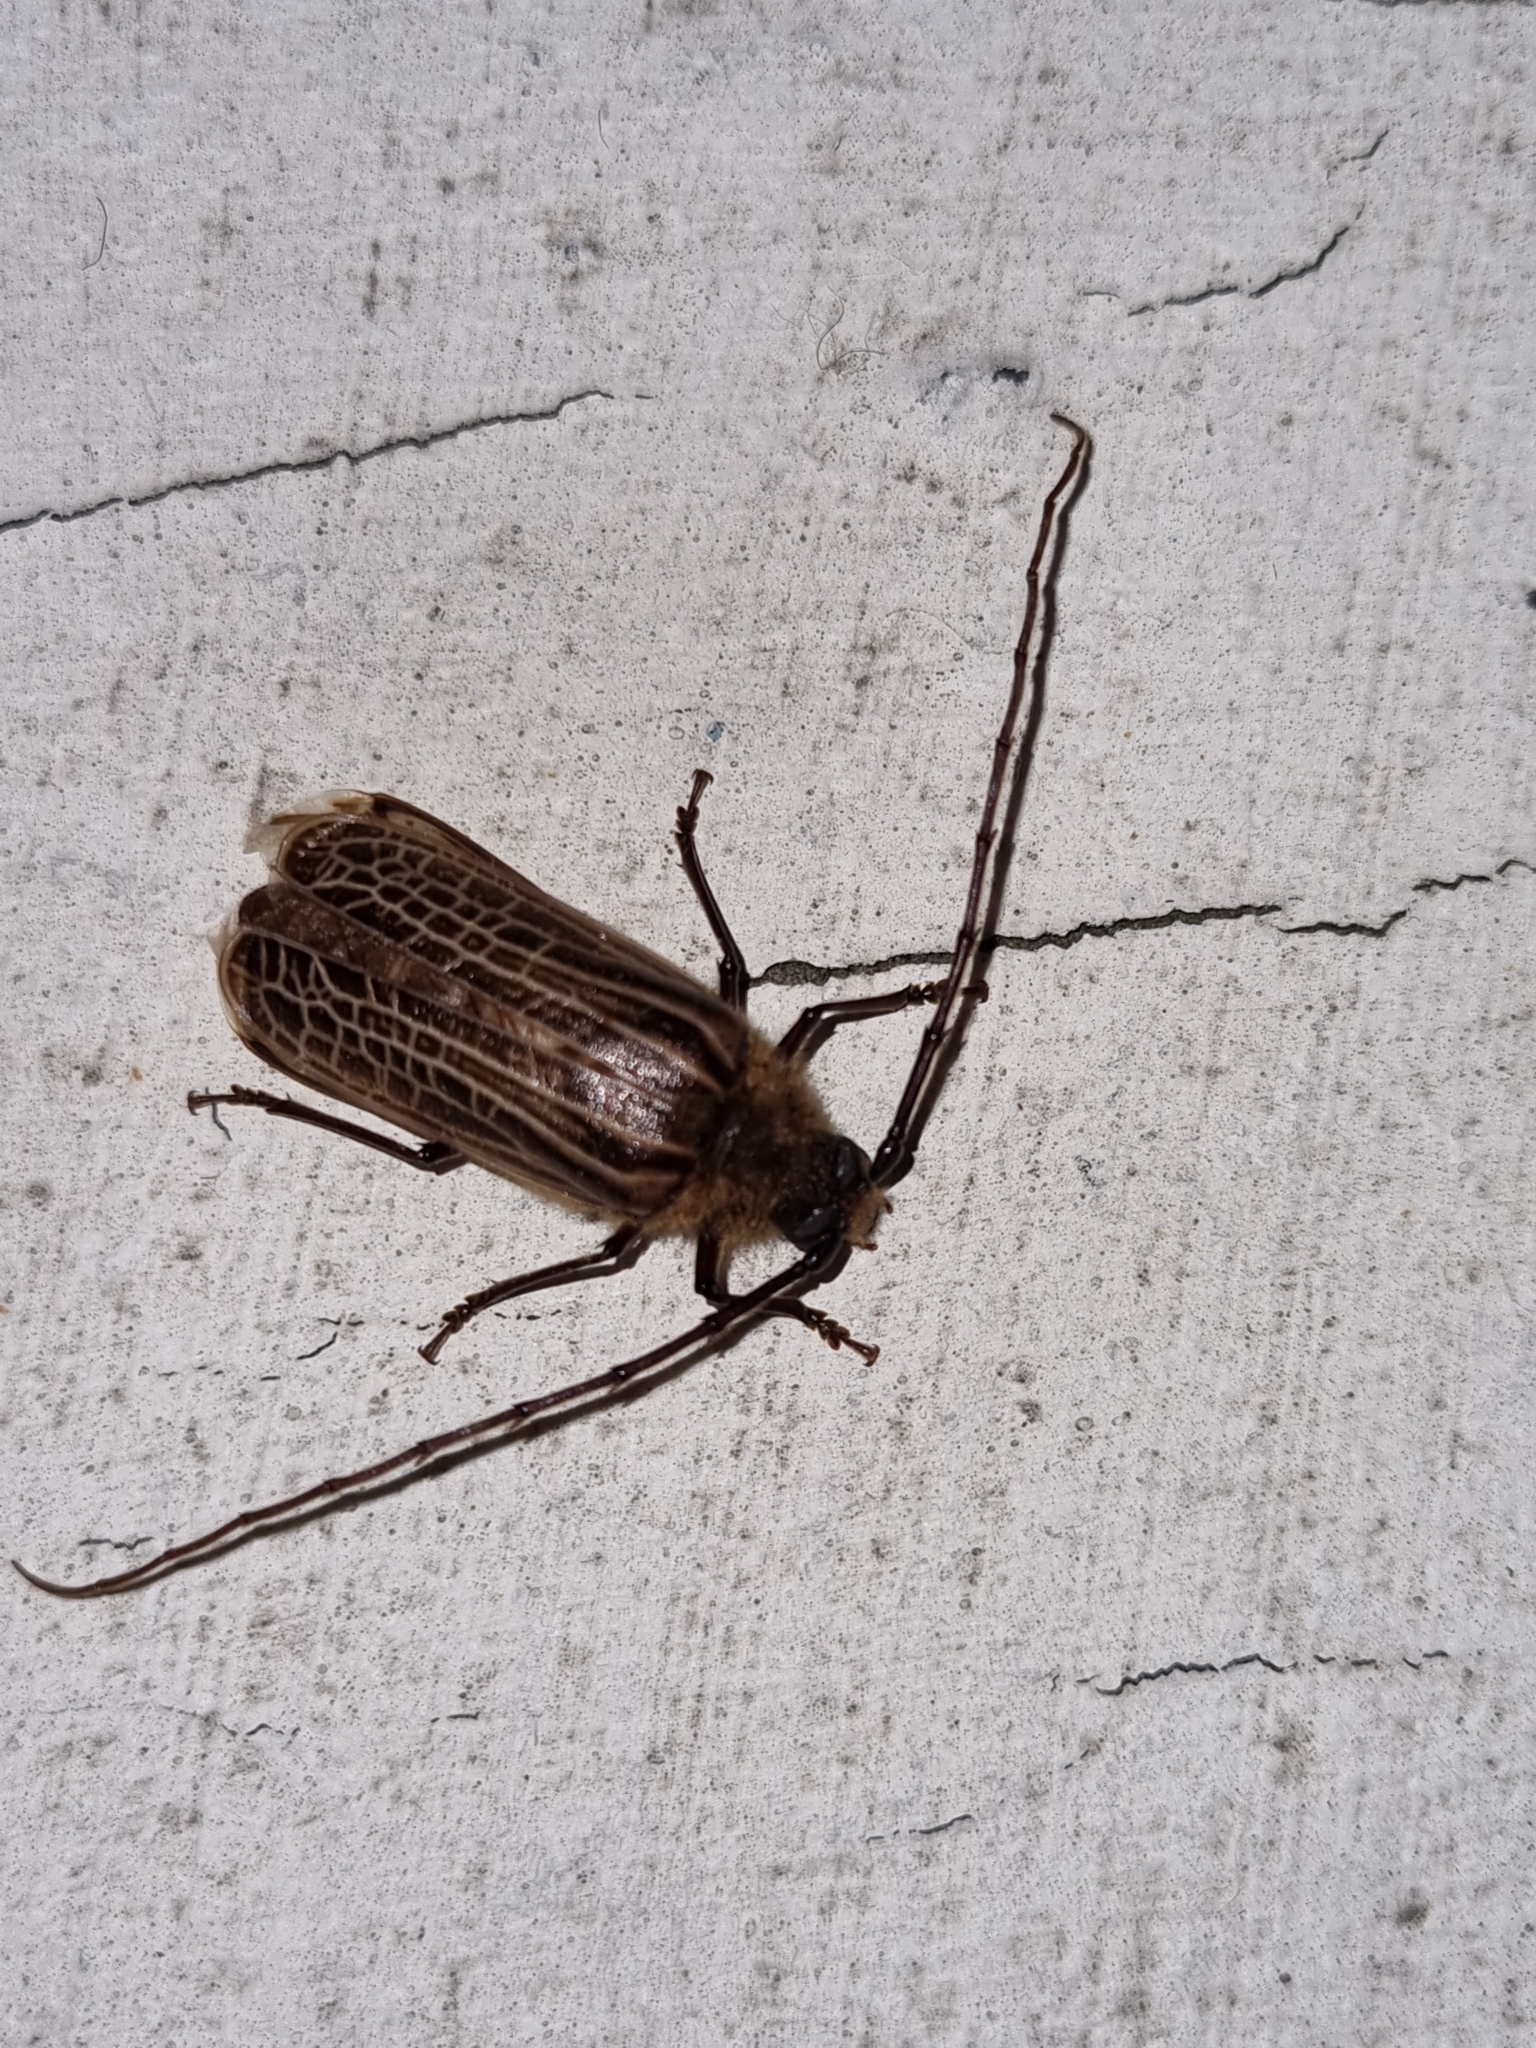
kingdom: Animalia
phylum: Arthropoda
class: Insecta
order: Coleoptera
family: Cerambycidae
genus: Prionoplus
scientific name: Prionoplus reticularis
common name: Huhu beetle
